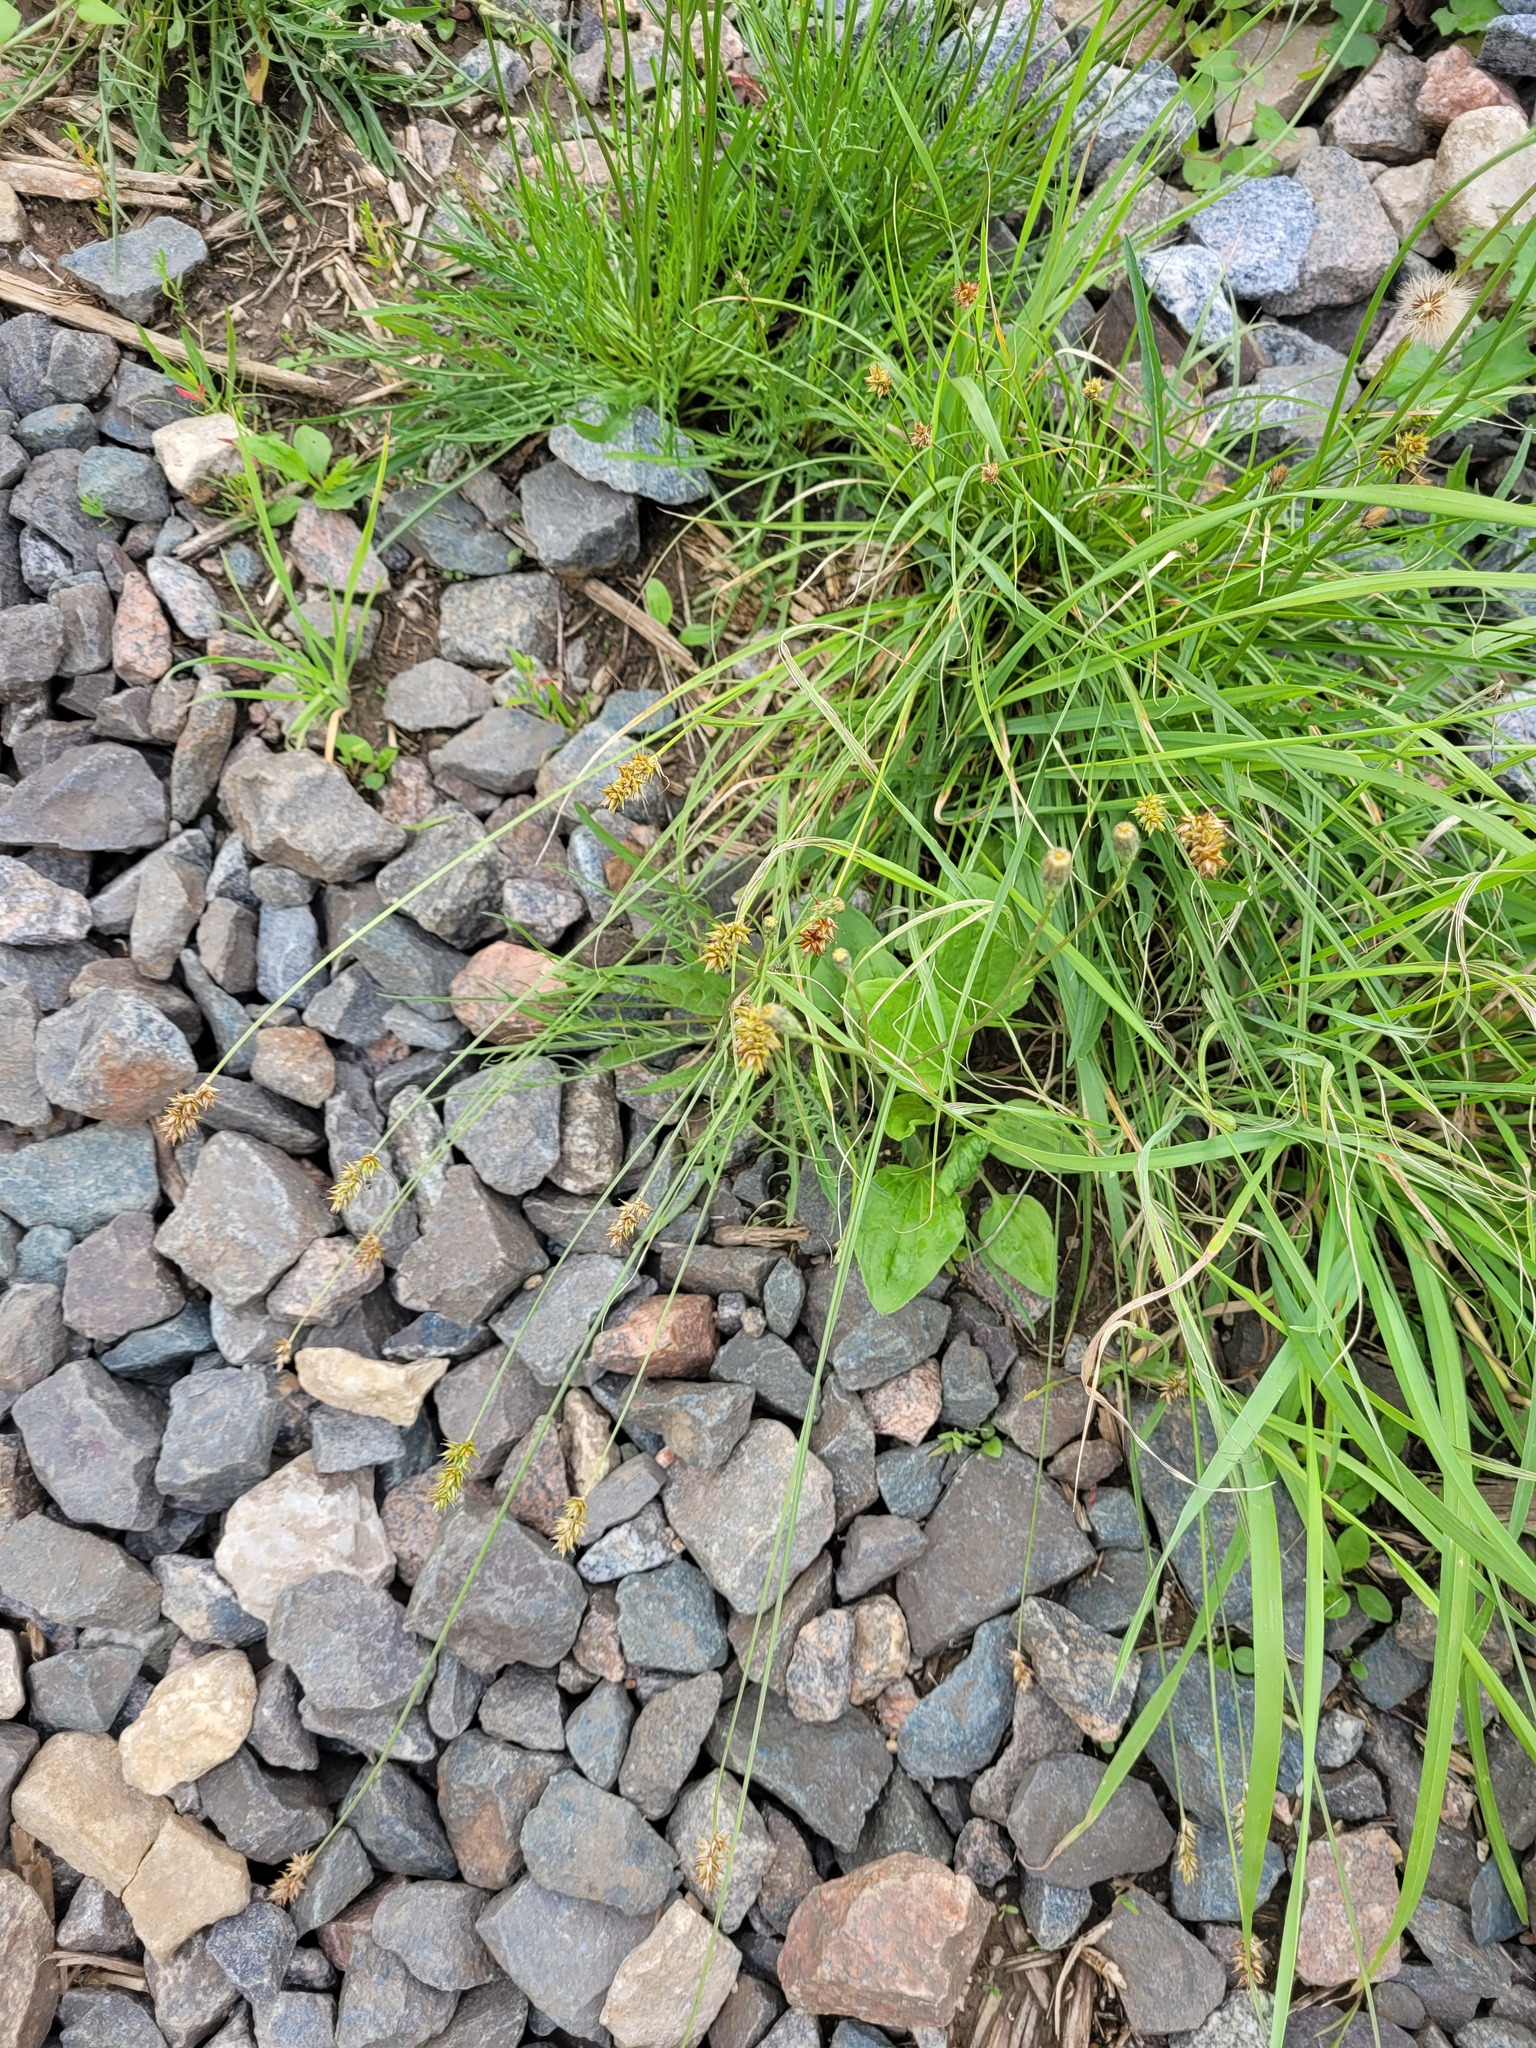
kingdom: Plantae
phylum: Tracheophyta
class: Liliopsida
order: Poales
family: Cyperaceae
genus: Carex
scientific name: Carex spicata
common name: Spiked sedge
